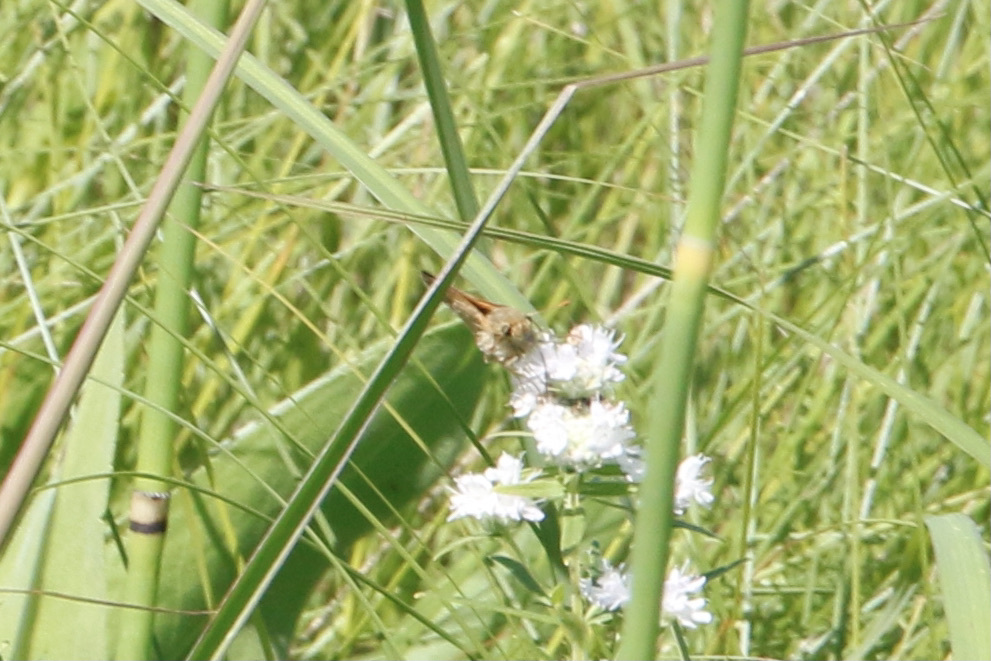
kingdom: Animalia
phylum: Arthropoda
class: Insecta
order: Lepidoptera
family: Hesperiidae
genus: Polites
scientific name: Polites themistocles
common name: Tawny-edged skipper
